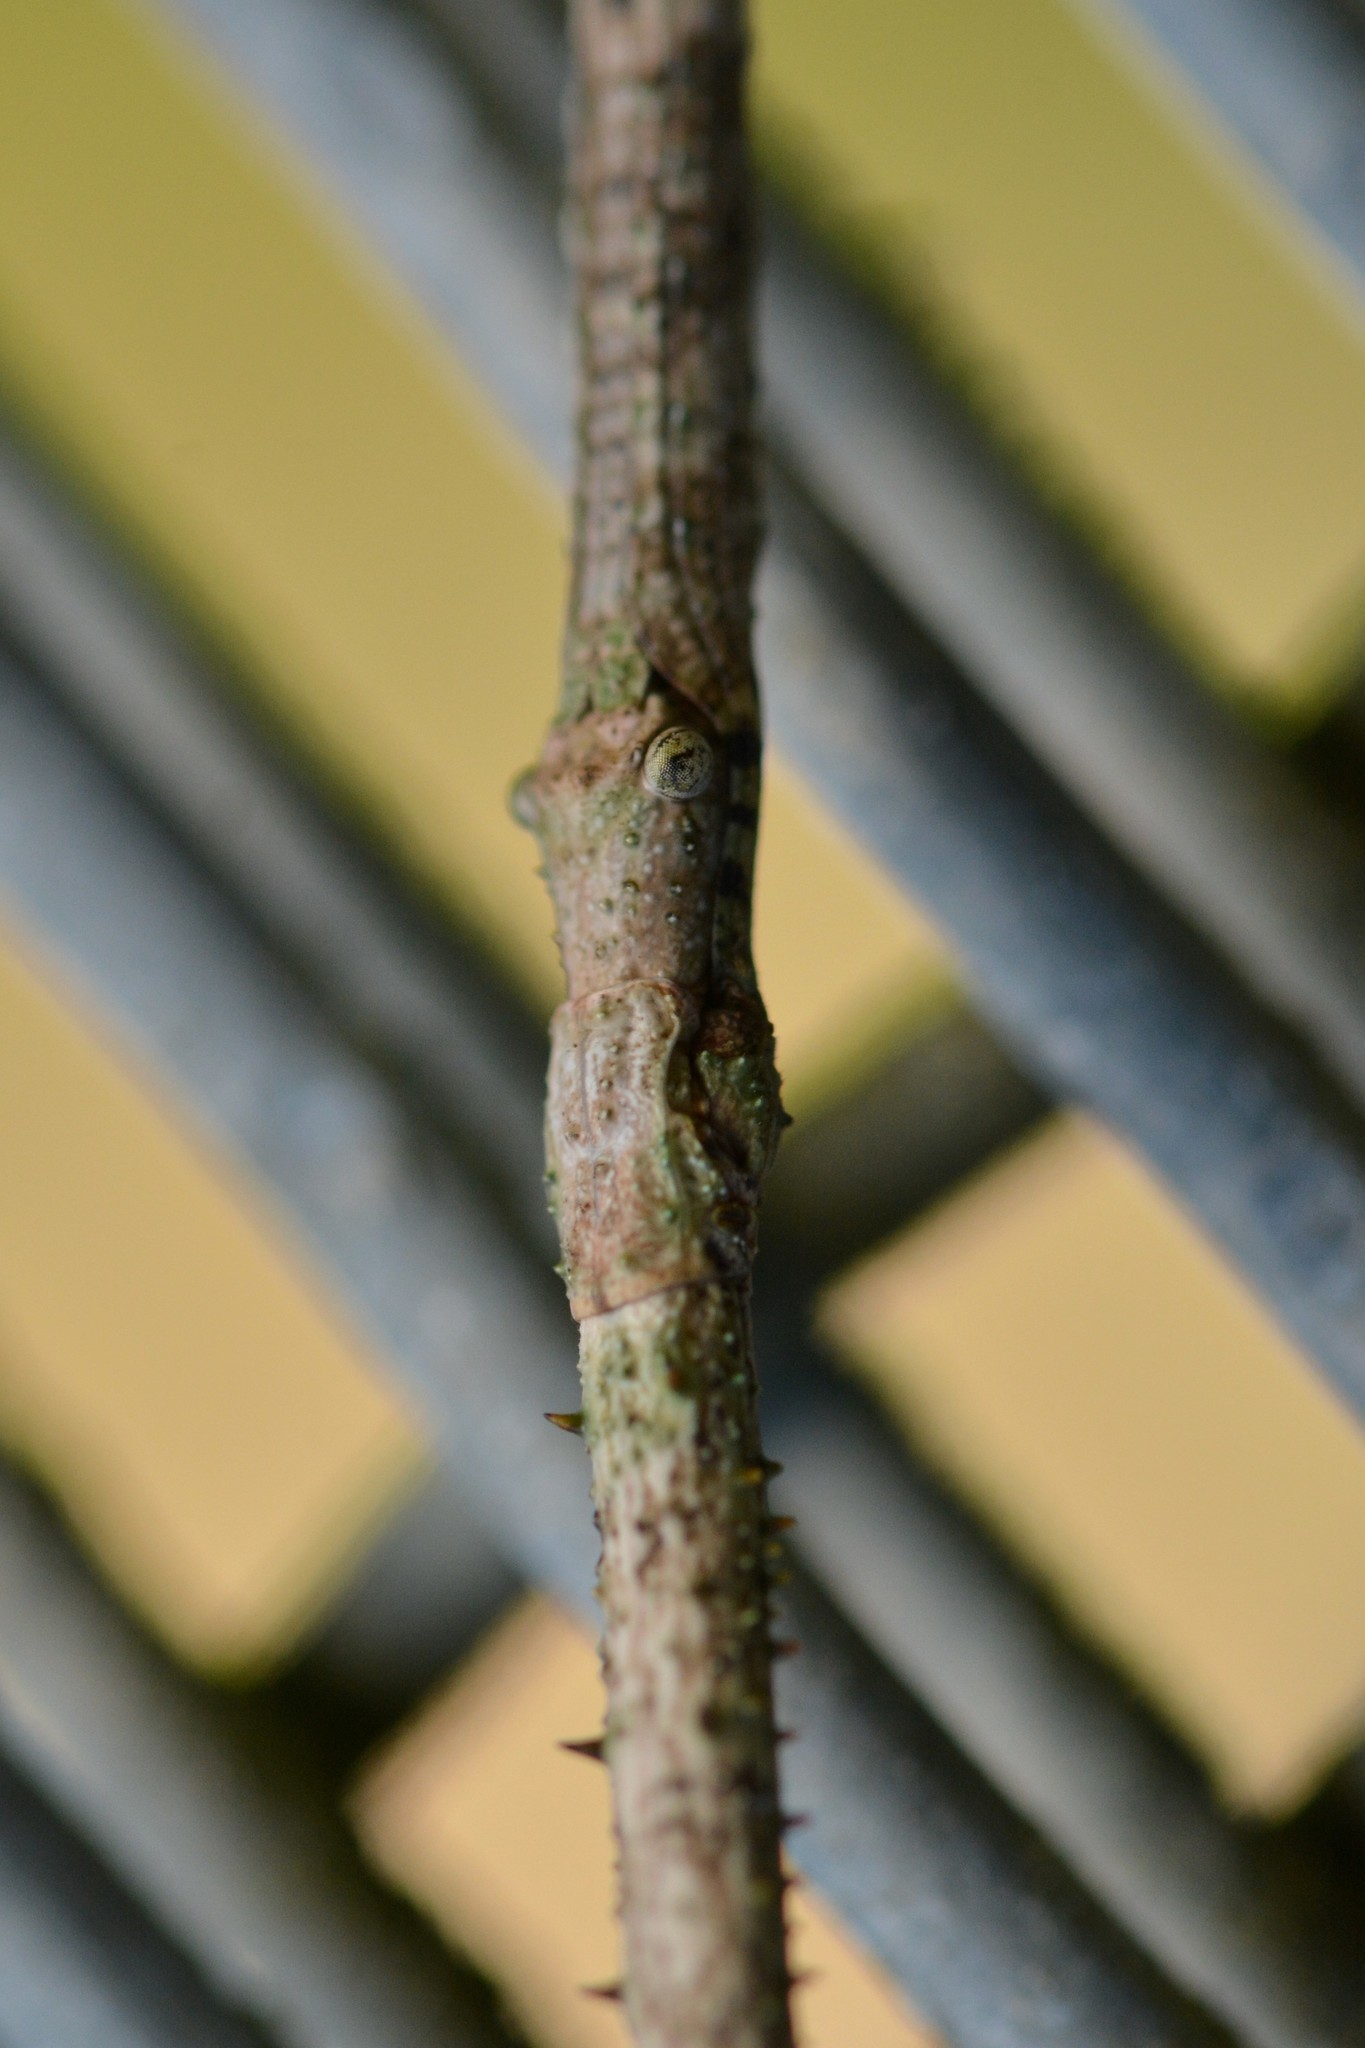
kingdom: Animalia
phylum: Arthropoda
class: Insecta
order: Phasmida
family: Phasmatidae
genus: Argosarchus
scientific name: Argosarchus horridus
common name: Bristly stick insect
